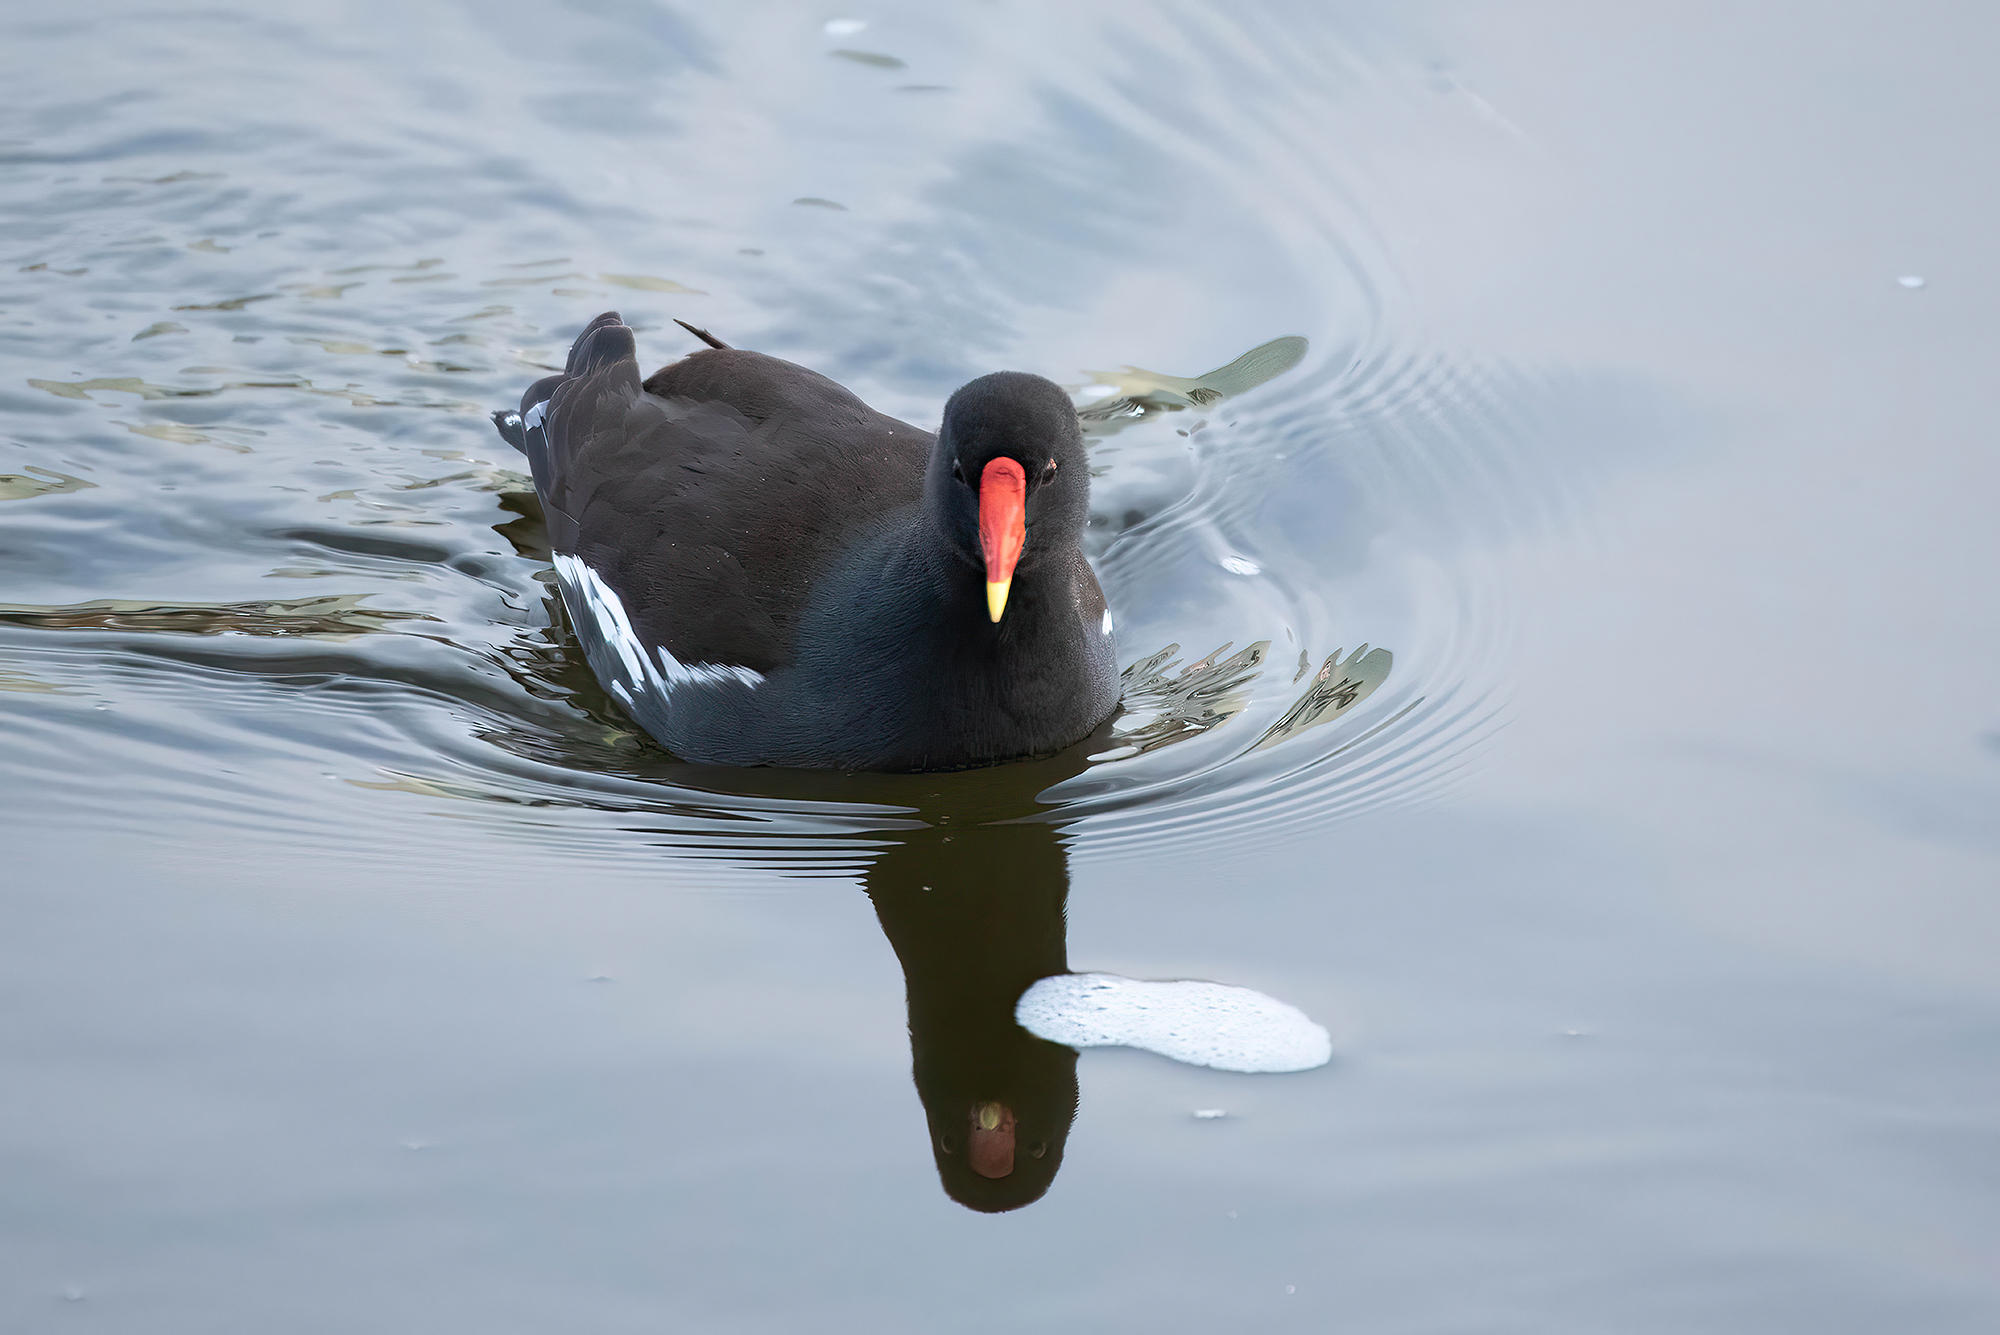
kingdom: Animalia
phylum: Chordata
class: Aves
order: Gruiformes
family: Rallidae
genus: Gallinula
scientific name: Gallinula chloropus
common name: Common moorhen
